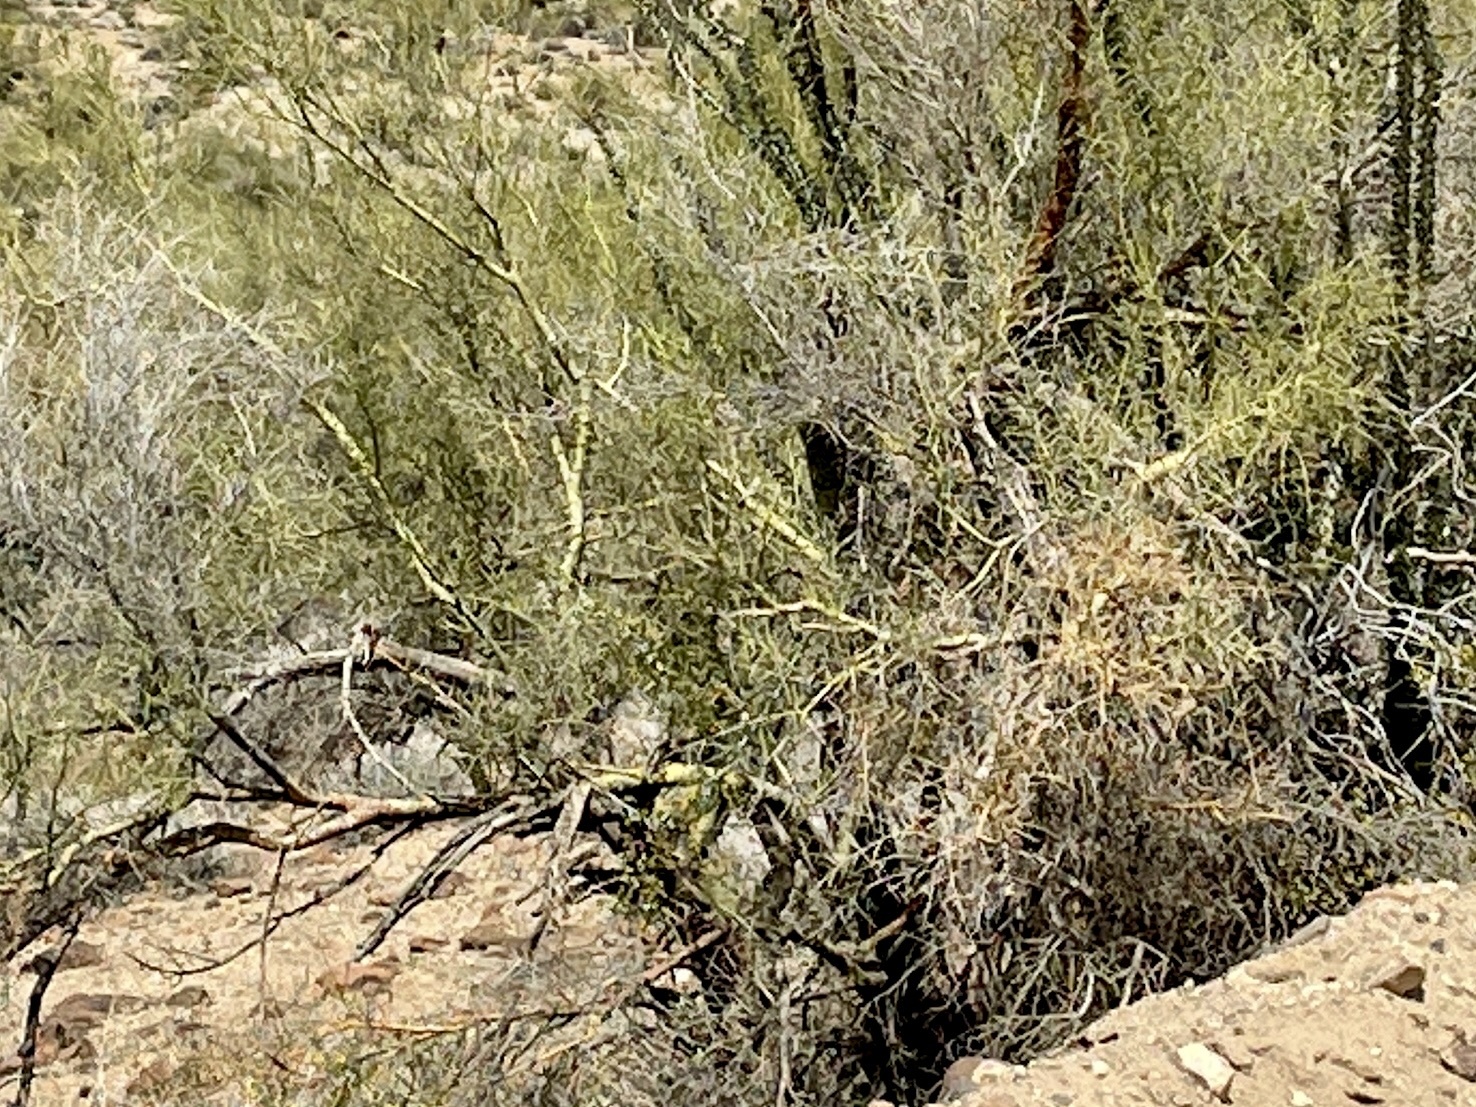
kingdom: Plantae
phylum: Tracheophyta
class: Magnoliopsida
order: Fabales
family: Fabaceae
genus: Parkinsonia
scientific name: Parkinsonia microphylla
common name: Yellow paloverde
